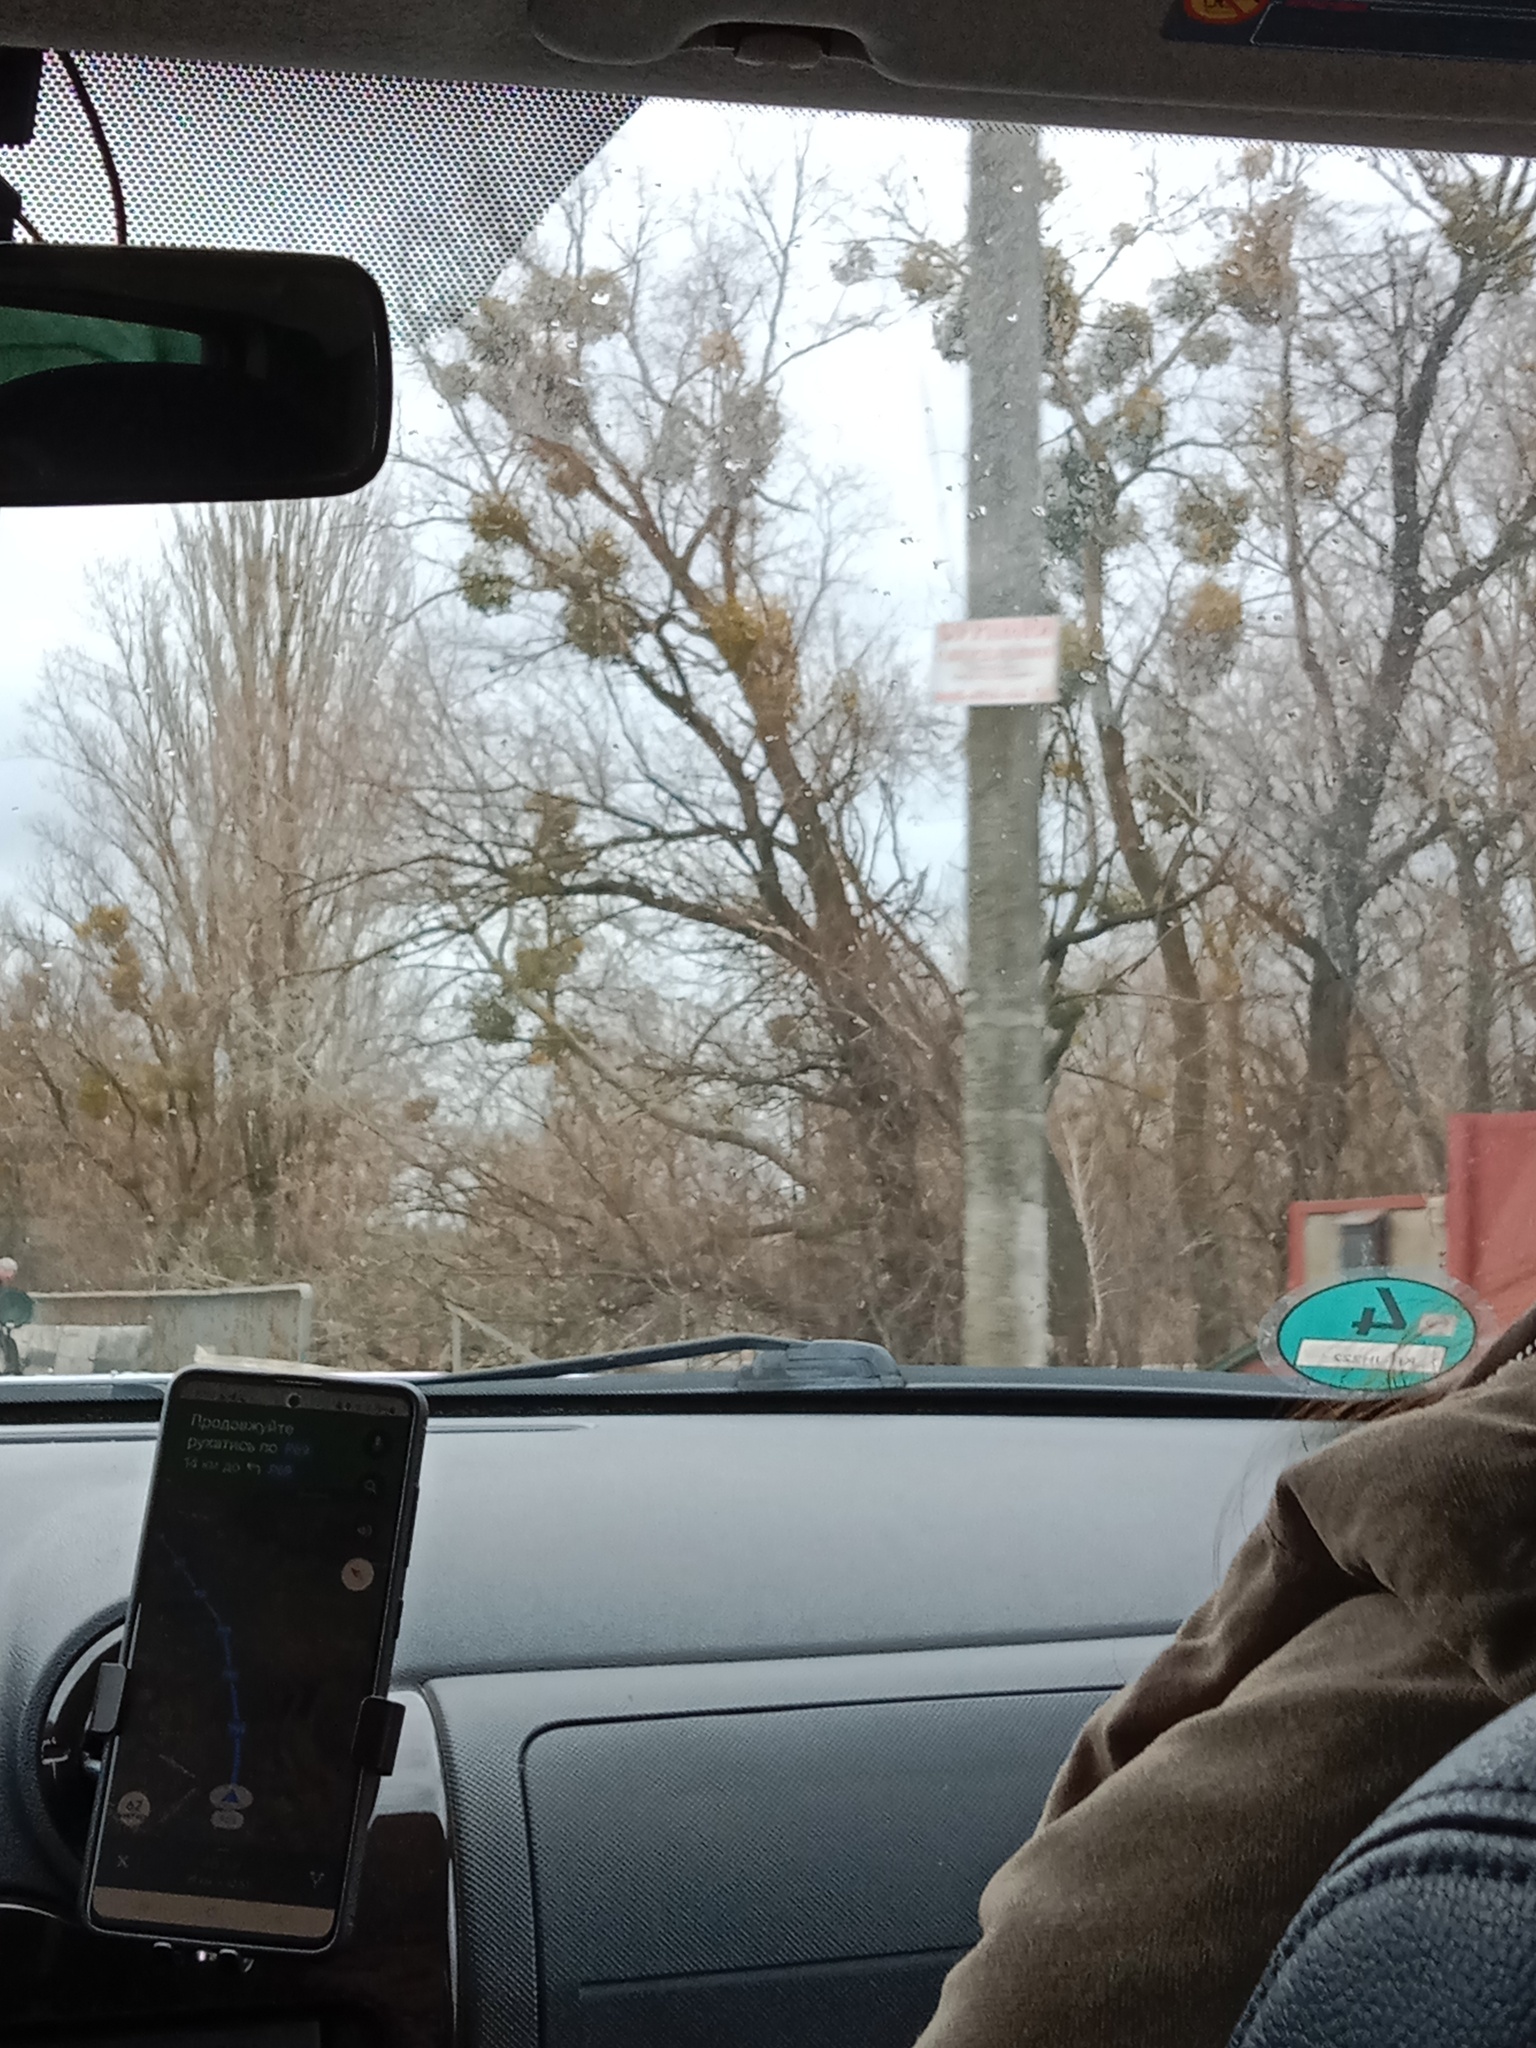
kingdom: Plantae
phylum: Tracheophyta
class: Magnoliopsida
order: Santalales
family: Viscaceae
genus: Viscum
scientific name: Viscum album
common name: Mistletoe
